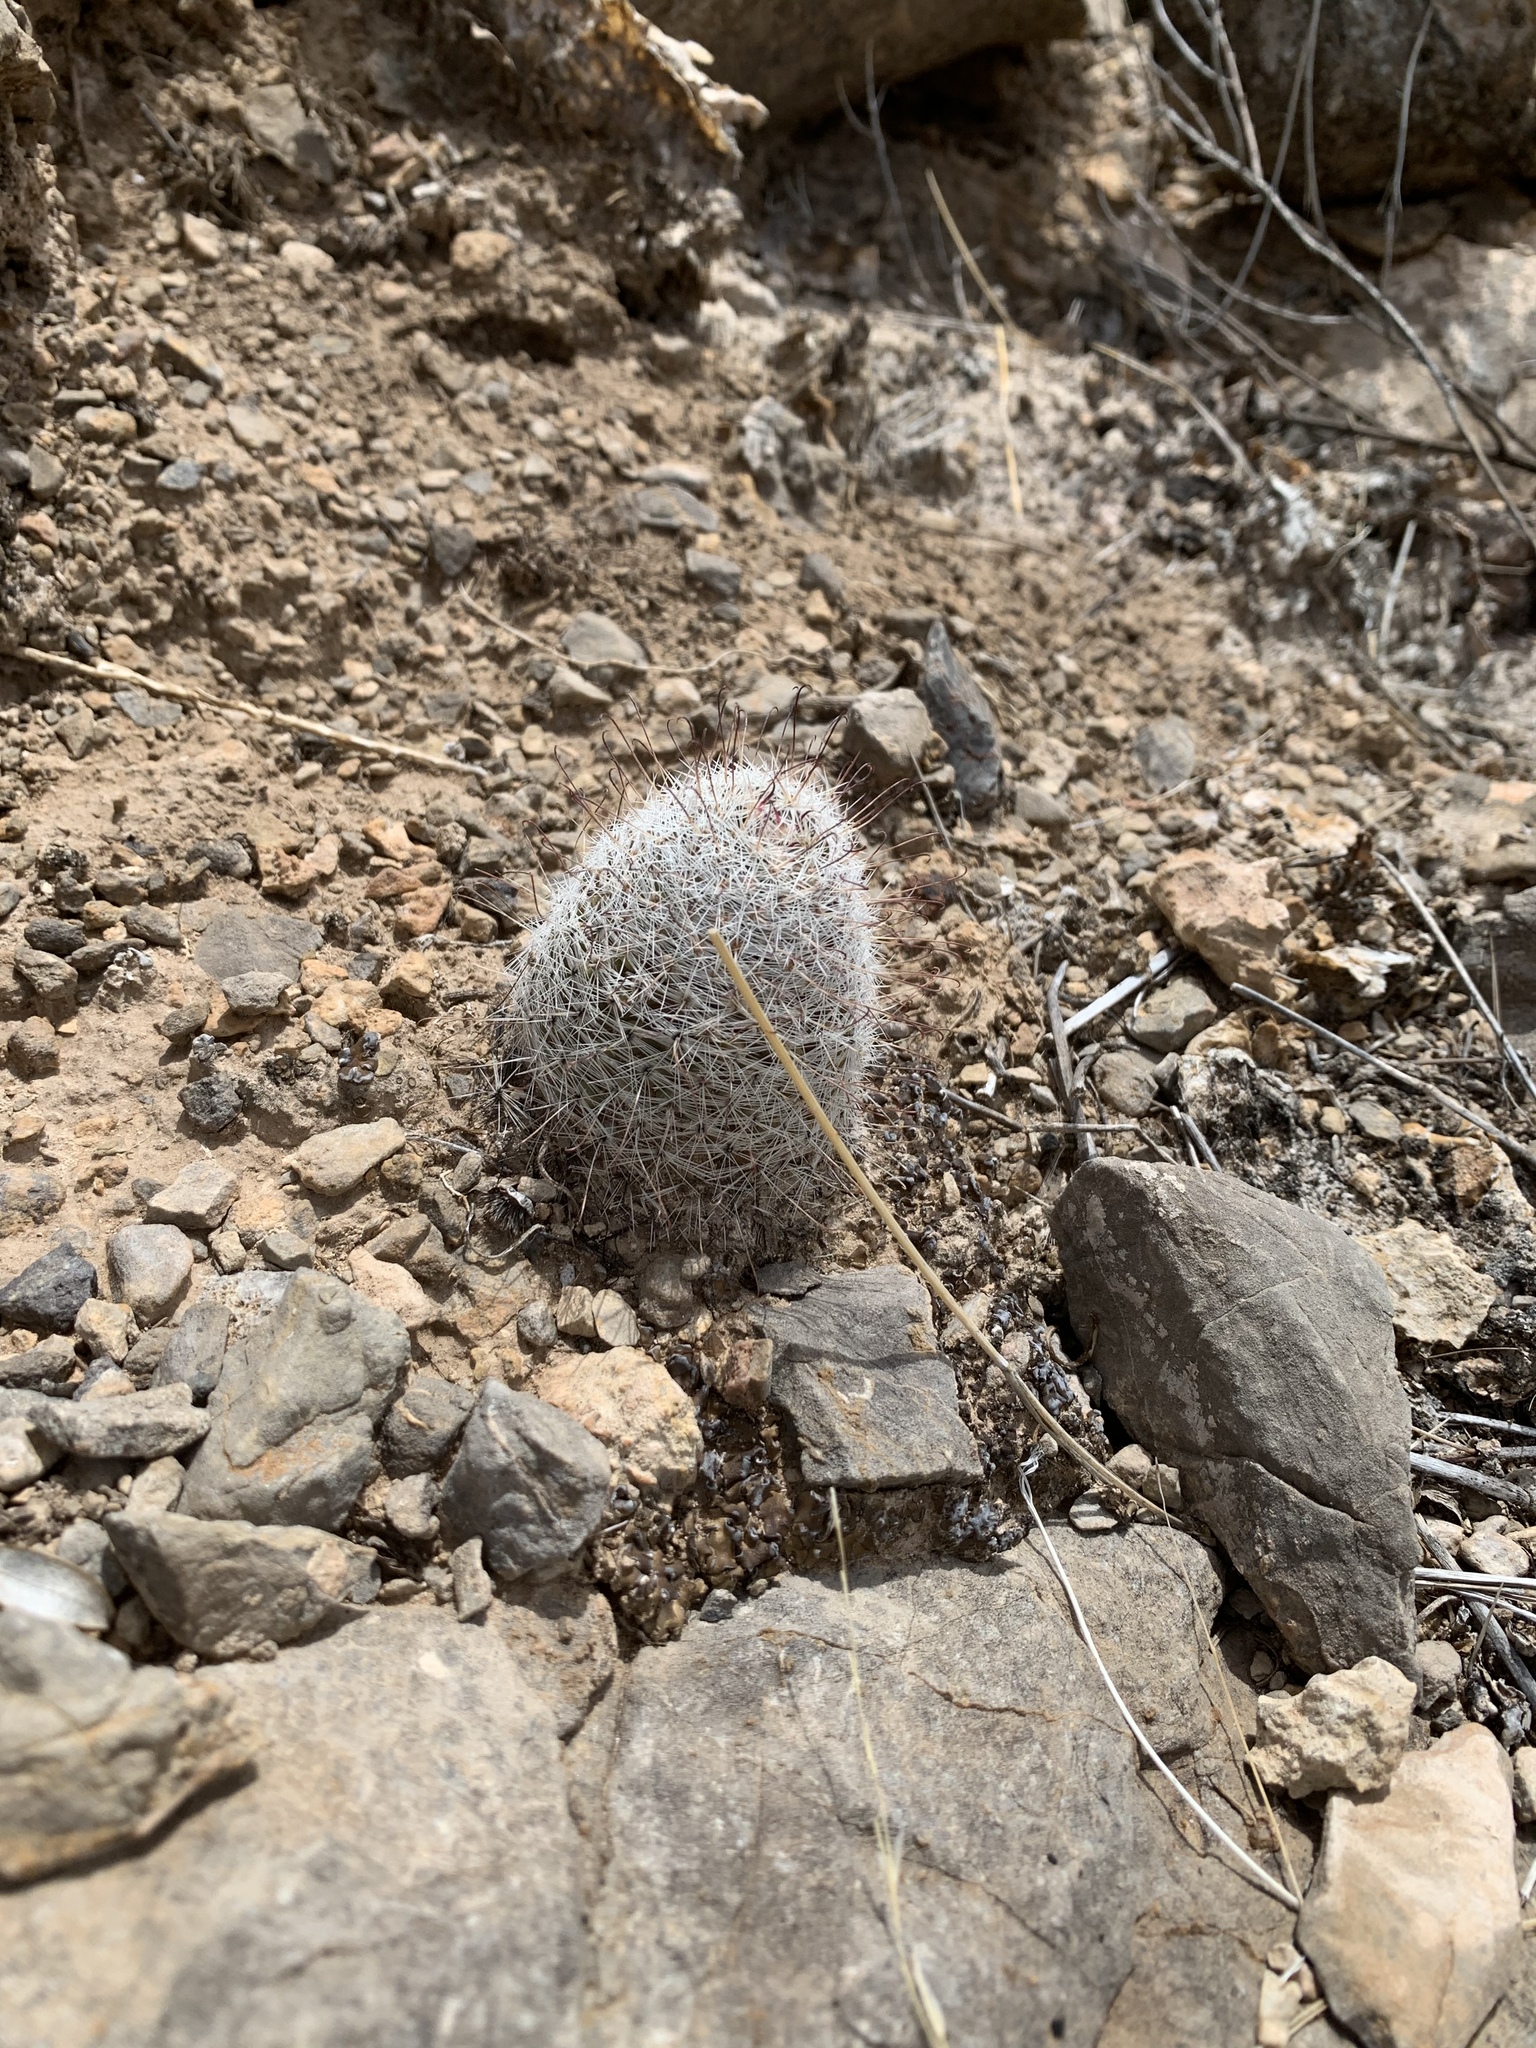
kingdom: Plantae
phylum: Tracheophyta
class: Magnoliopsida
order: Caryophyllales
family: Cactaceae
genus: Cochemiea
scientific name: Cochemiea grahamii
